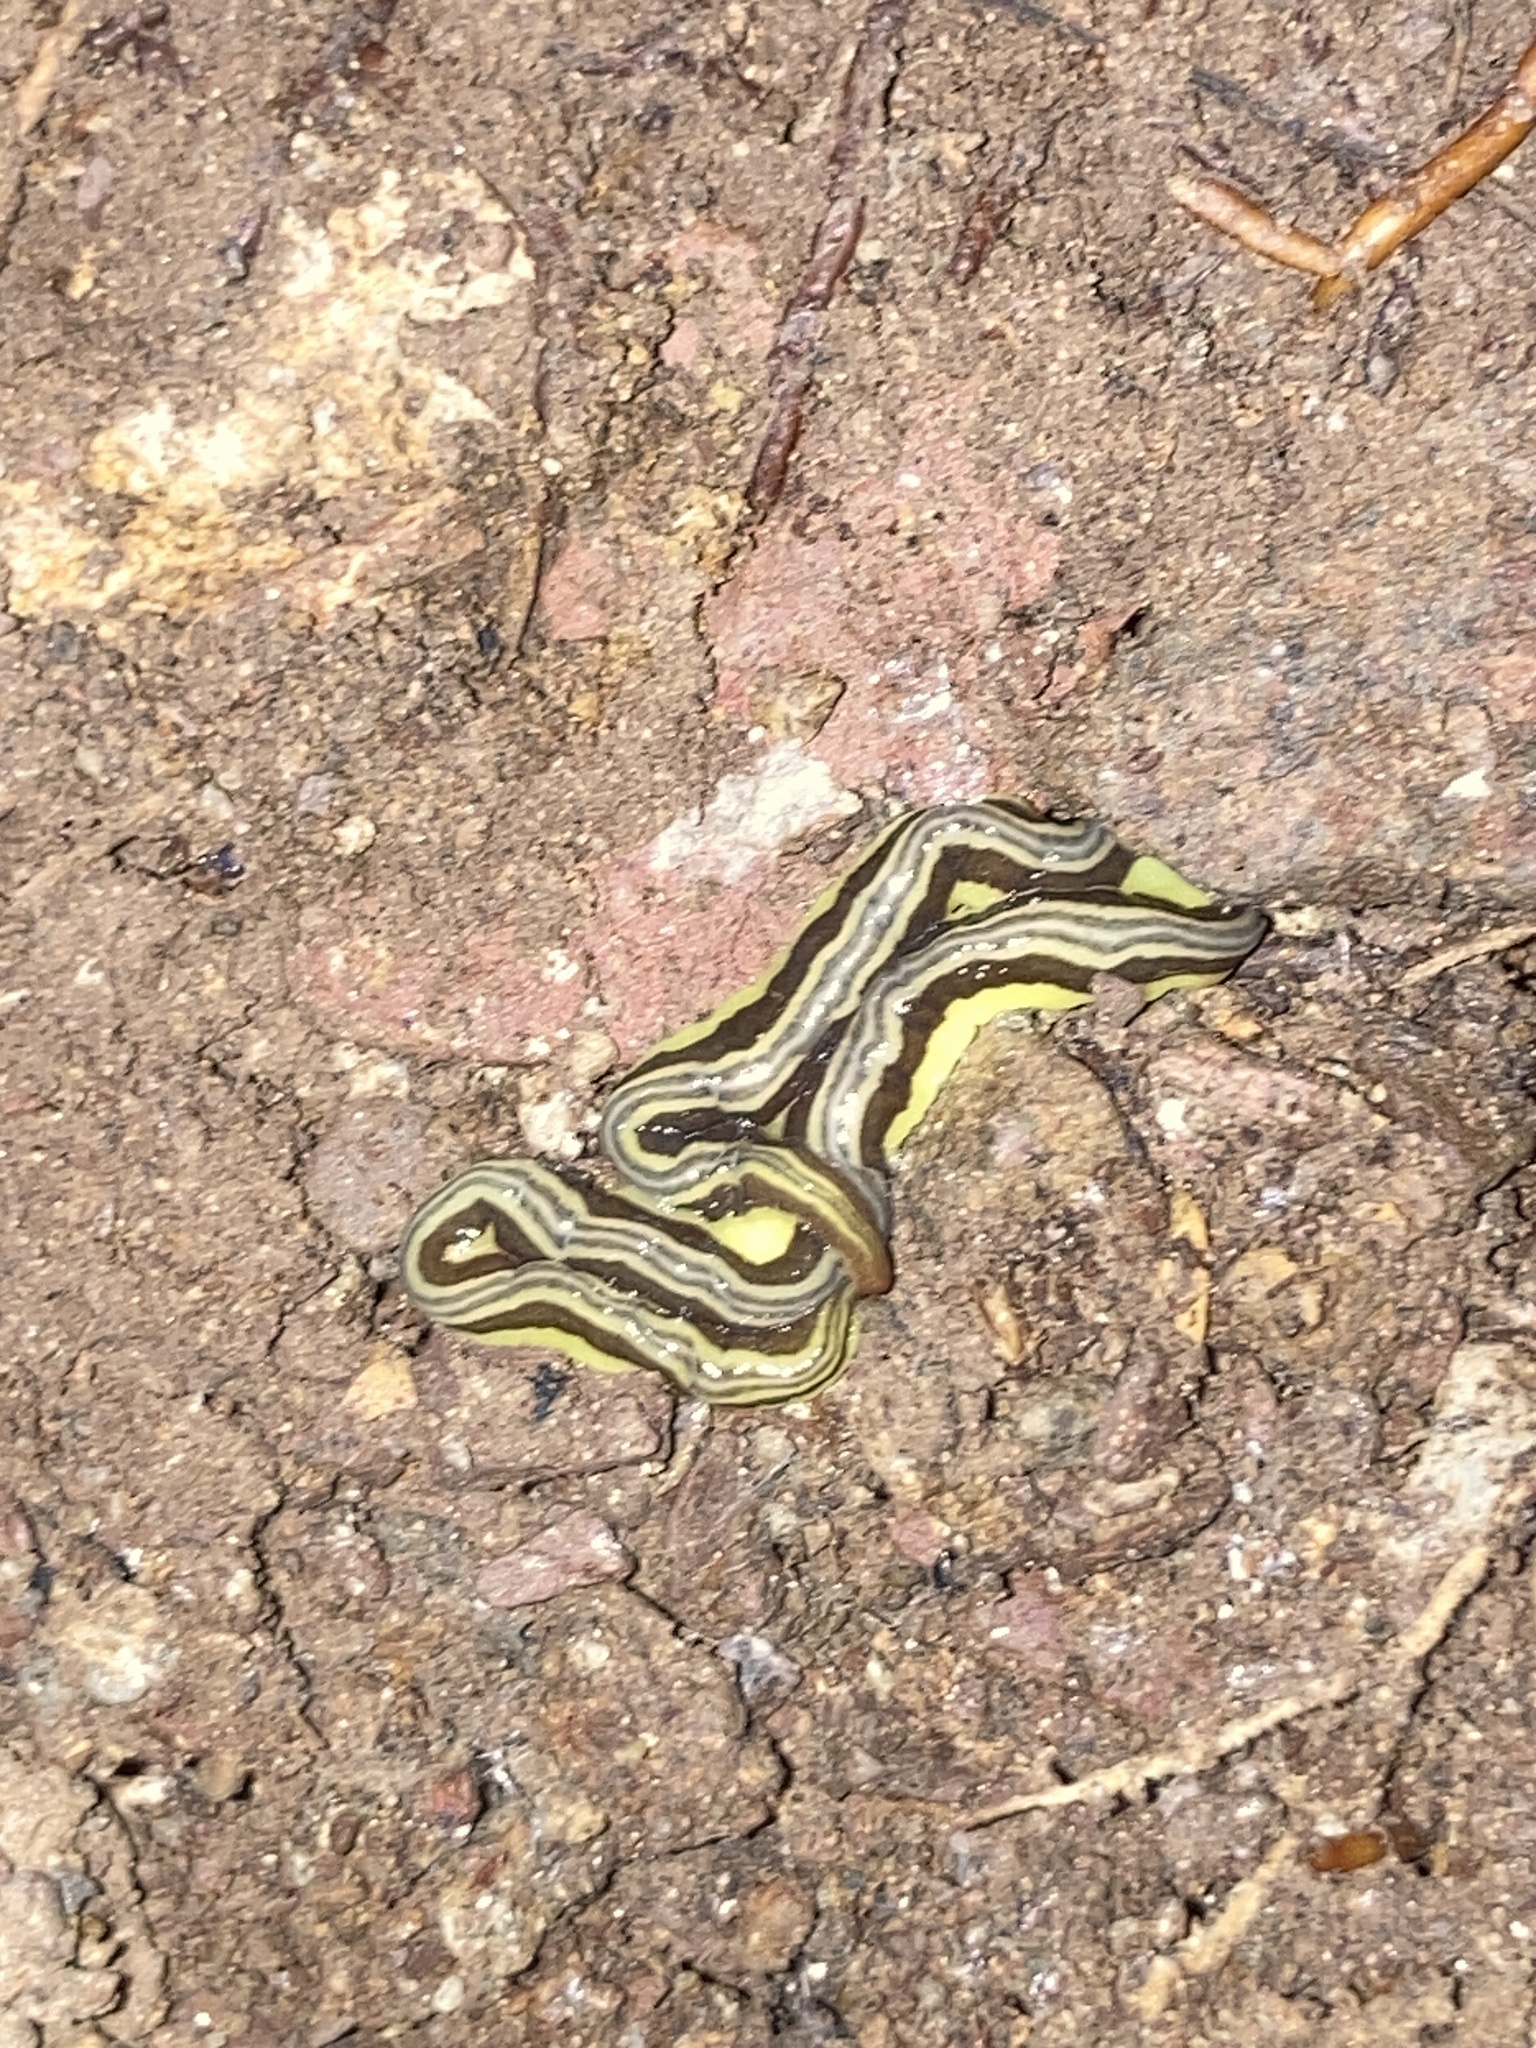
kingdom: Animalia
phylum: Platyhelminthes
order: Tricladida
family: Geoplanidae
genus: Caenoplana
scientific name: Caenoplana sulphurea
